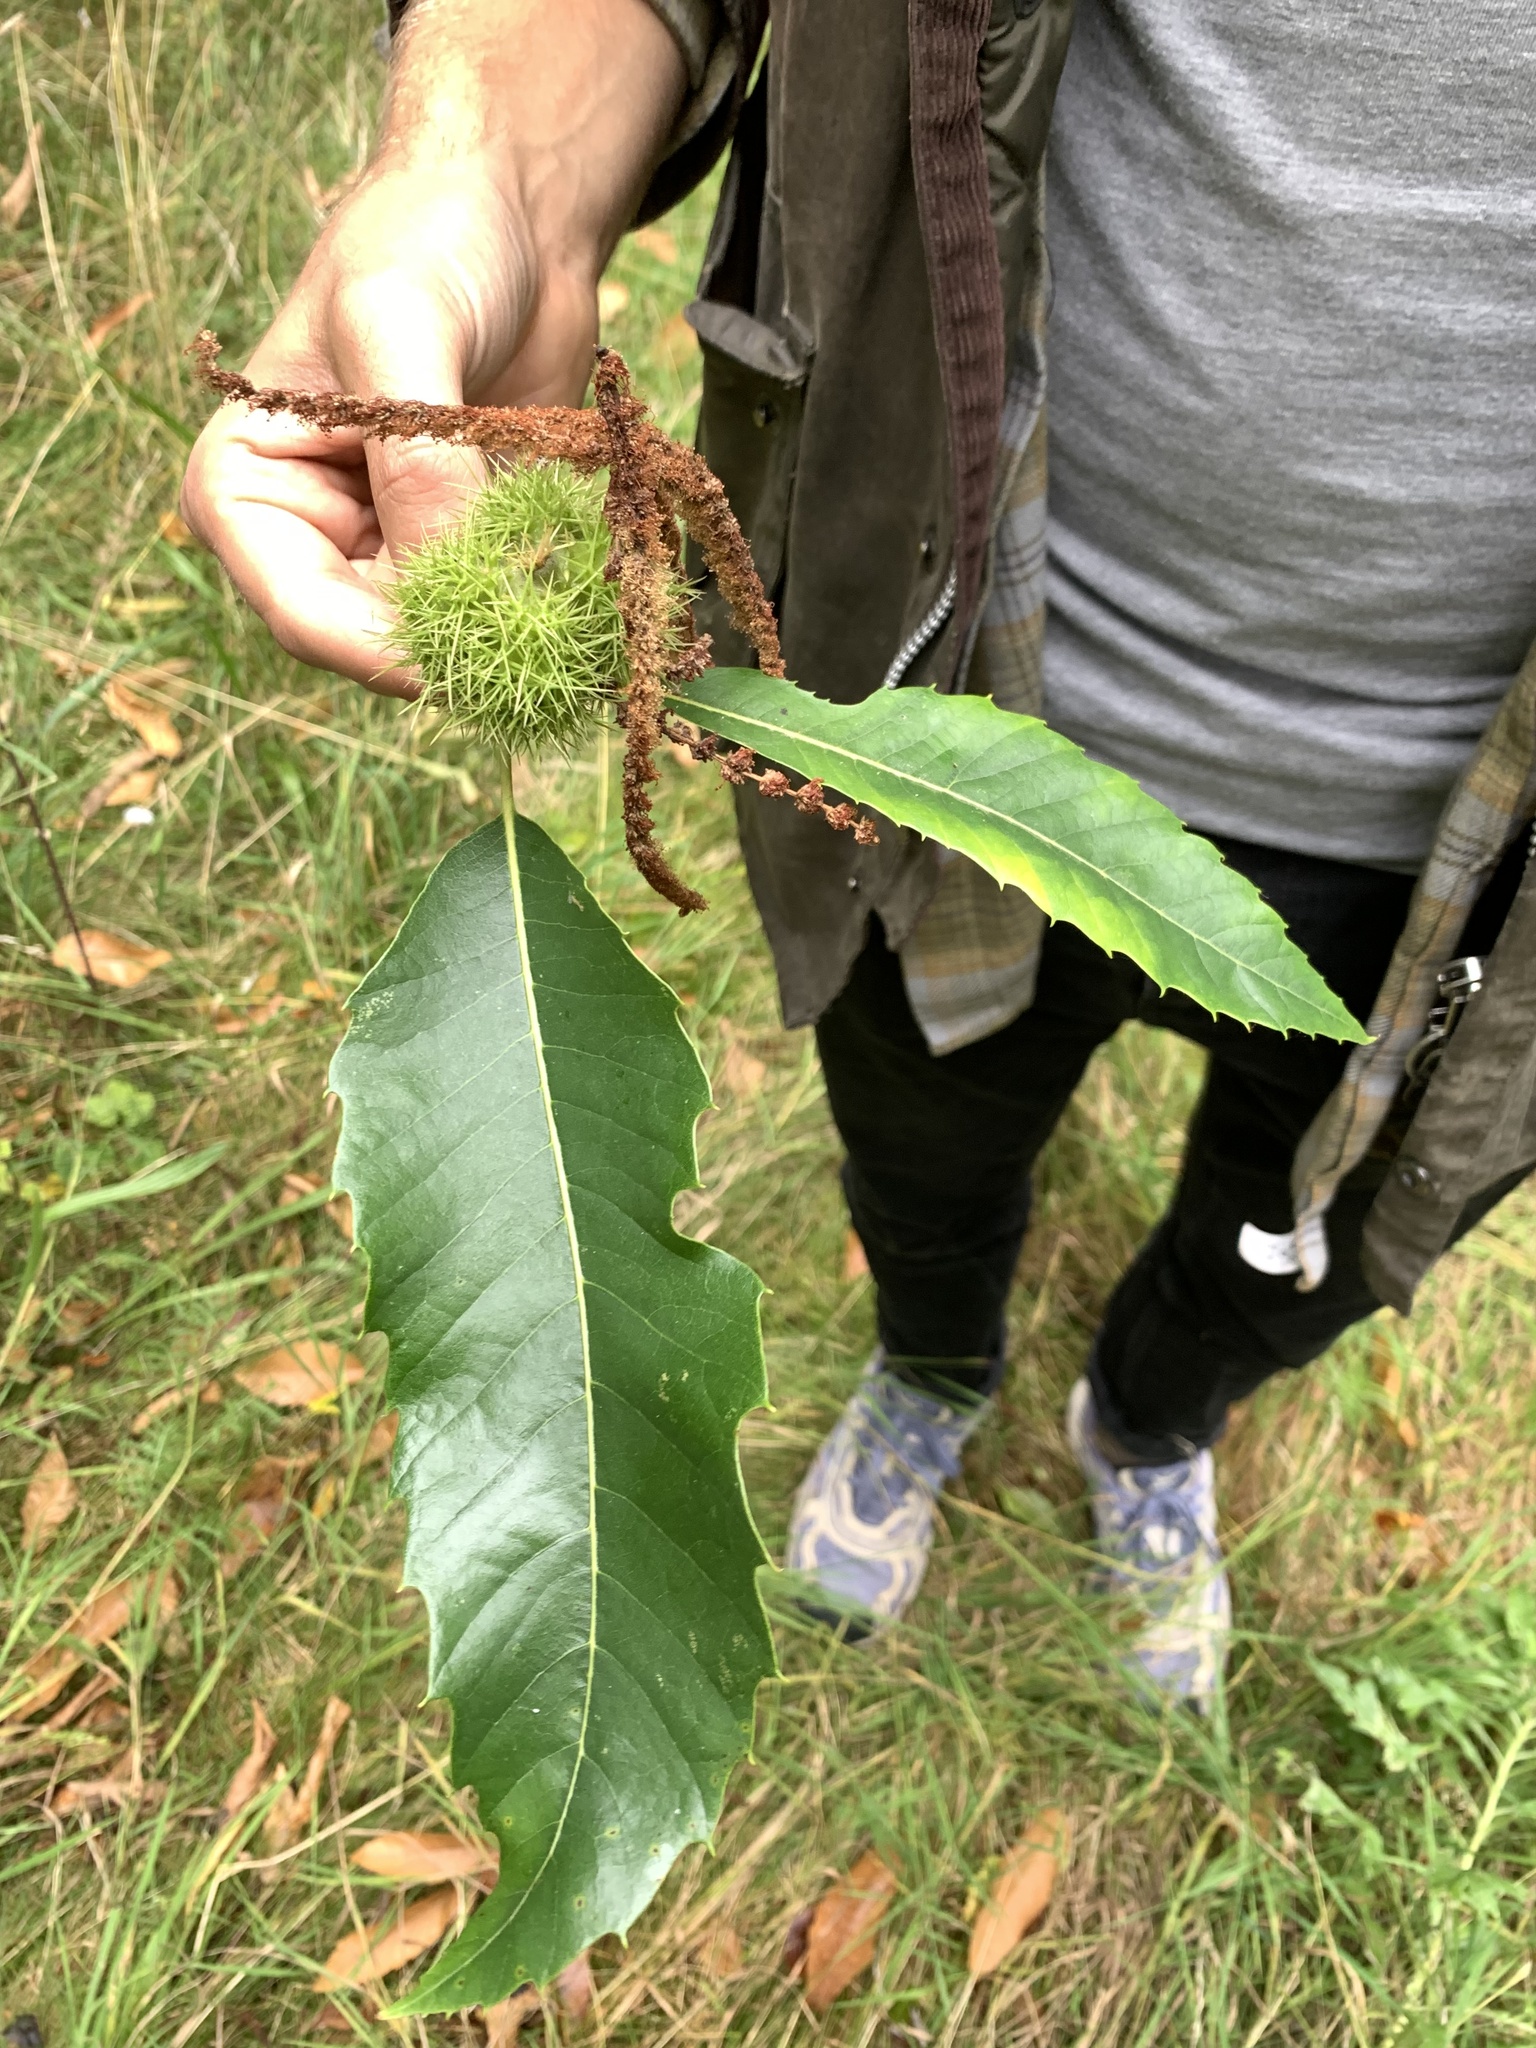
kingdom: Plantae
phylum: Tracheophyta
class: Magnoliopsida
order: Fagales
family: Fagaceae
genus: Castanea
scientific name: Castanea sativa
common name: Sweet chestnut
